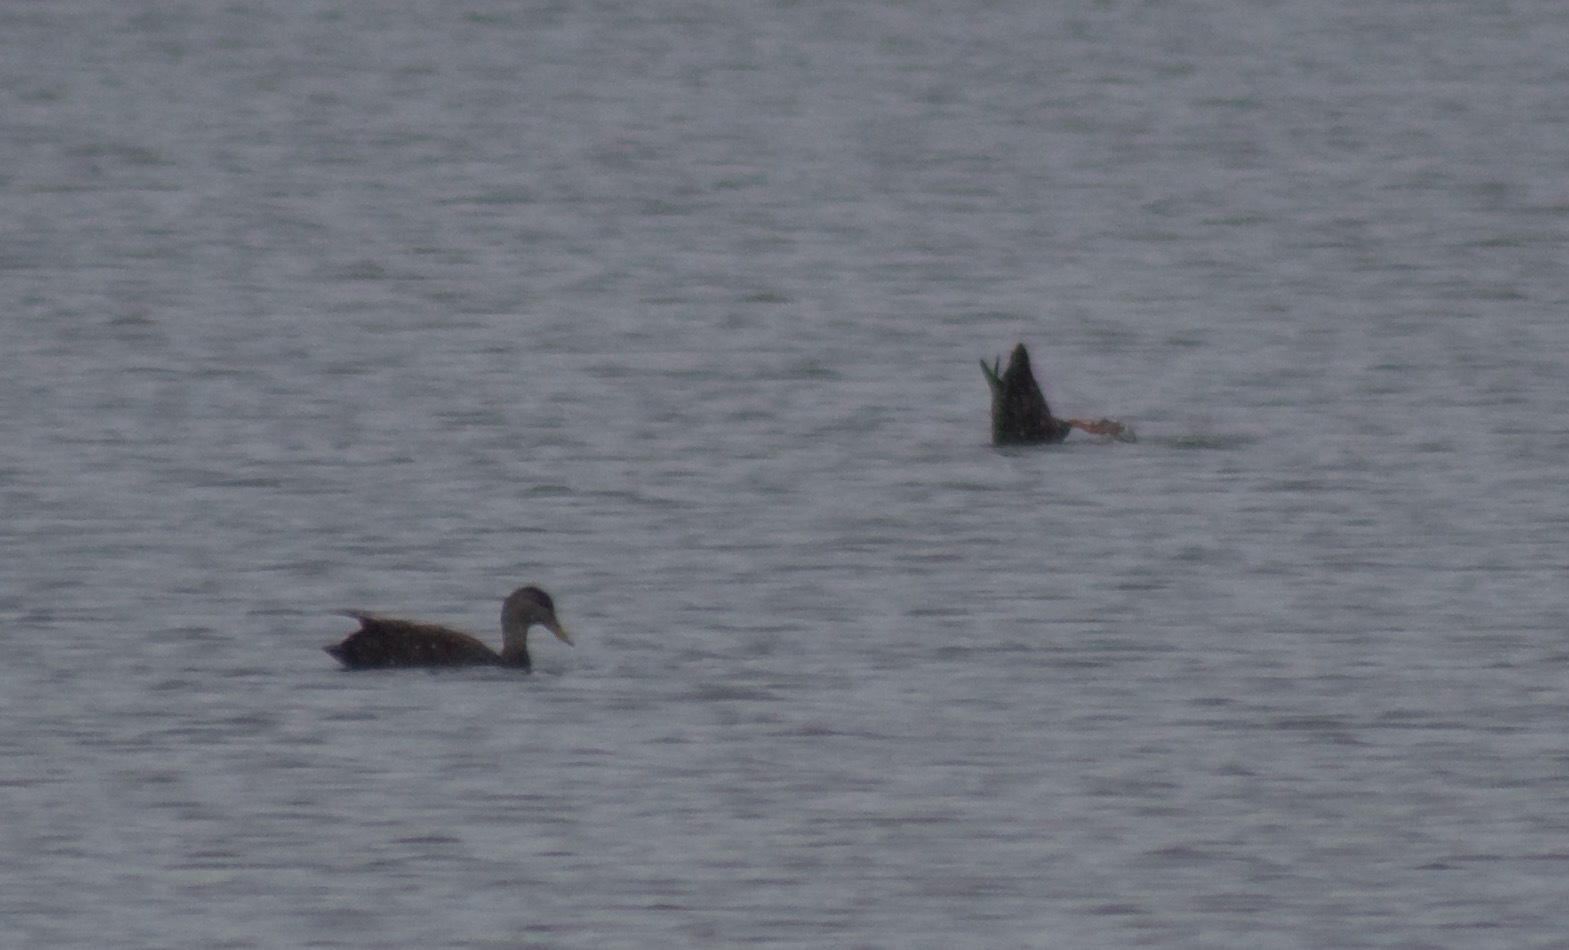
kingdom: Animalia
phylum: Chordata
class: Aves
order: Anseriformes
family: Anatidae
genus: Anas
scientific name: Anas rubripes
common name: American black duck
